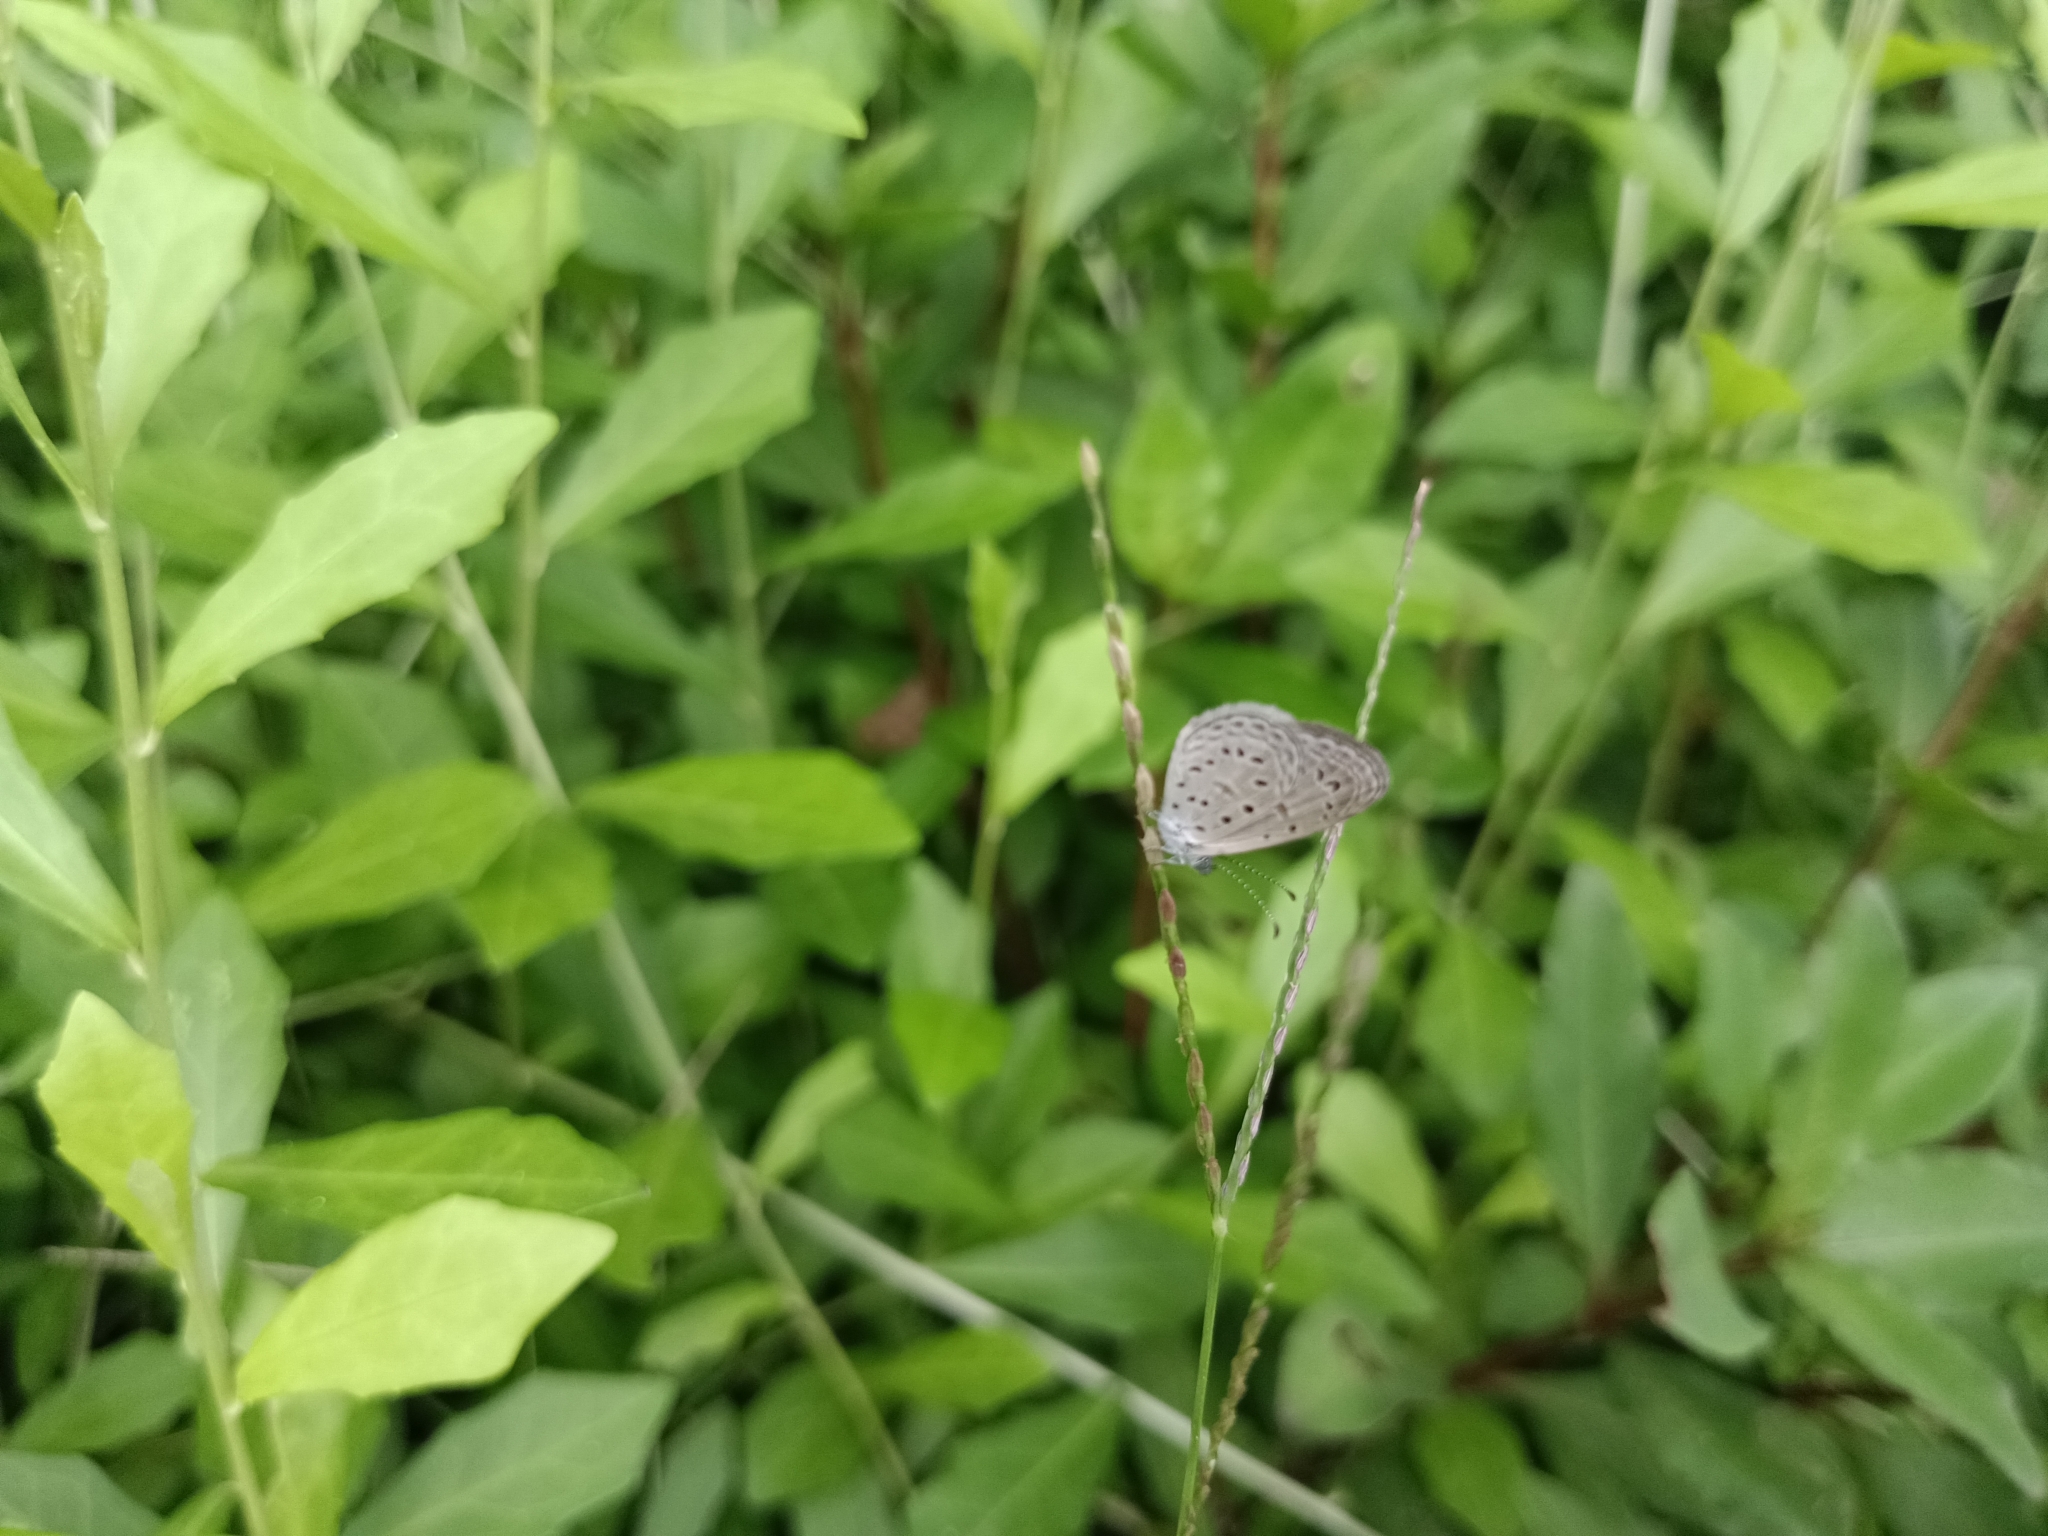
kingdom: Animalia
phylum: Arthropoda
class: Insecta
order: Lepidoptera
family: Lycaenidae
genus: Zizula
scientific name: Zizula hylax
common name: Gaika blue
